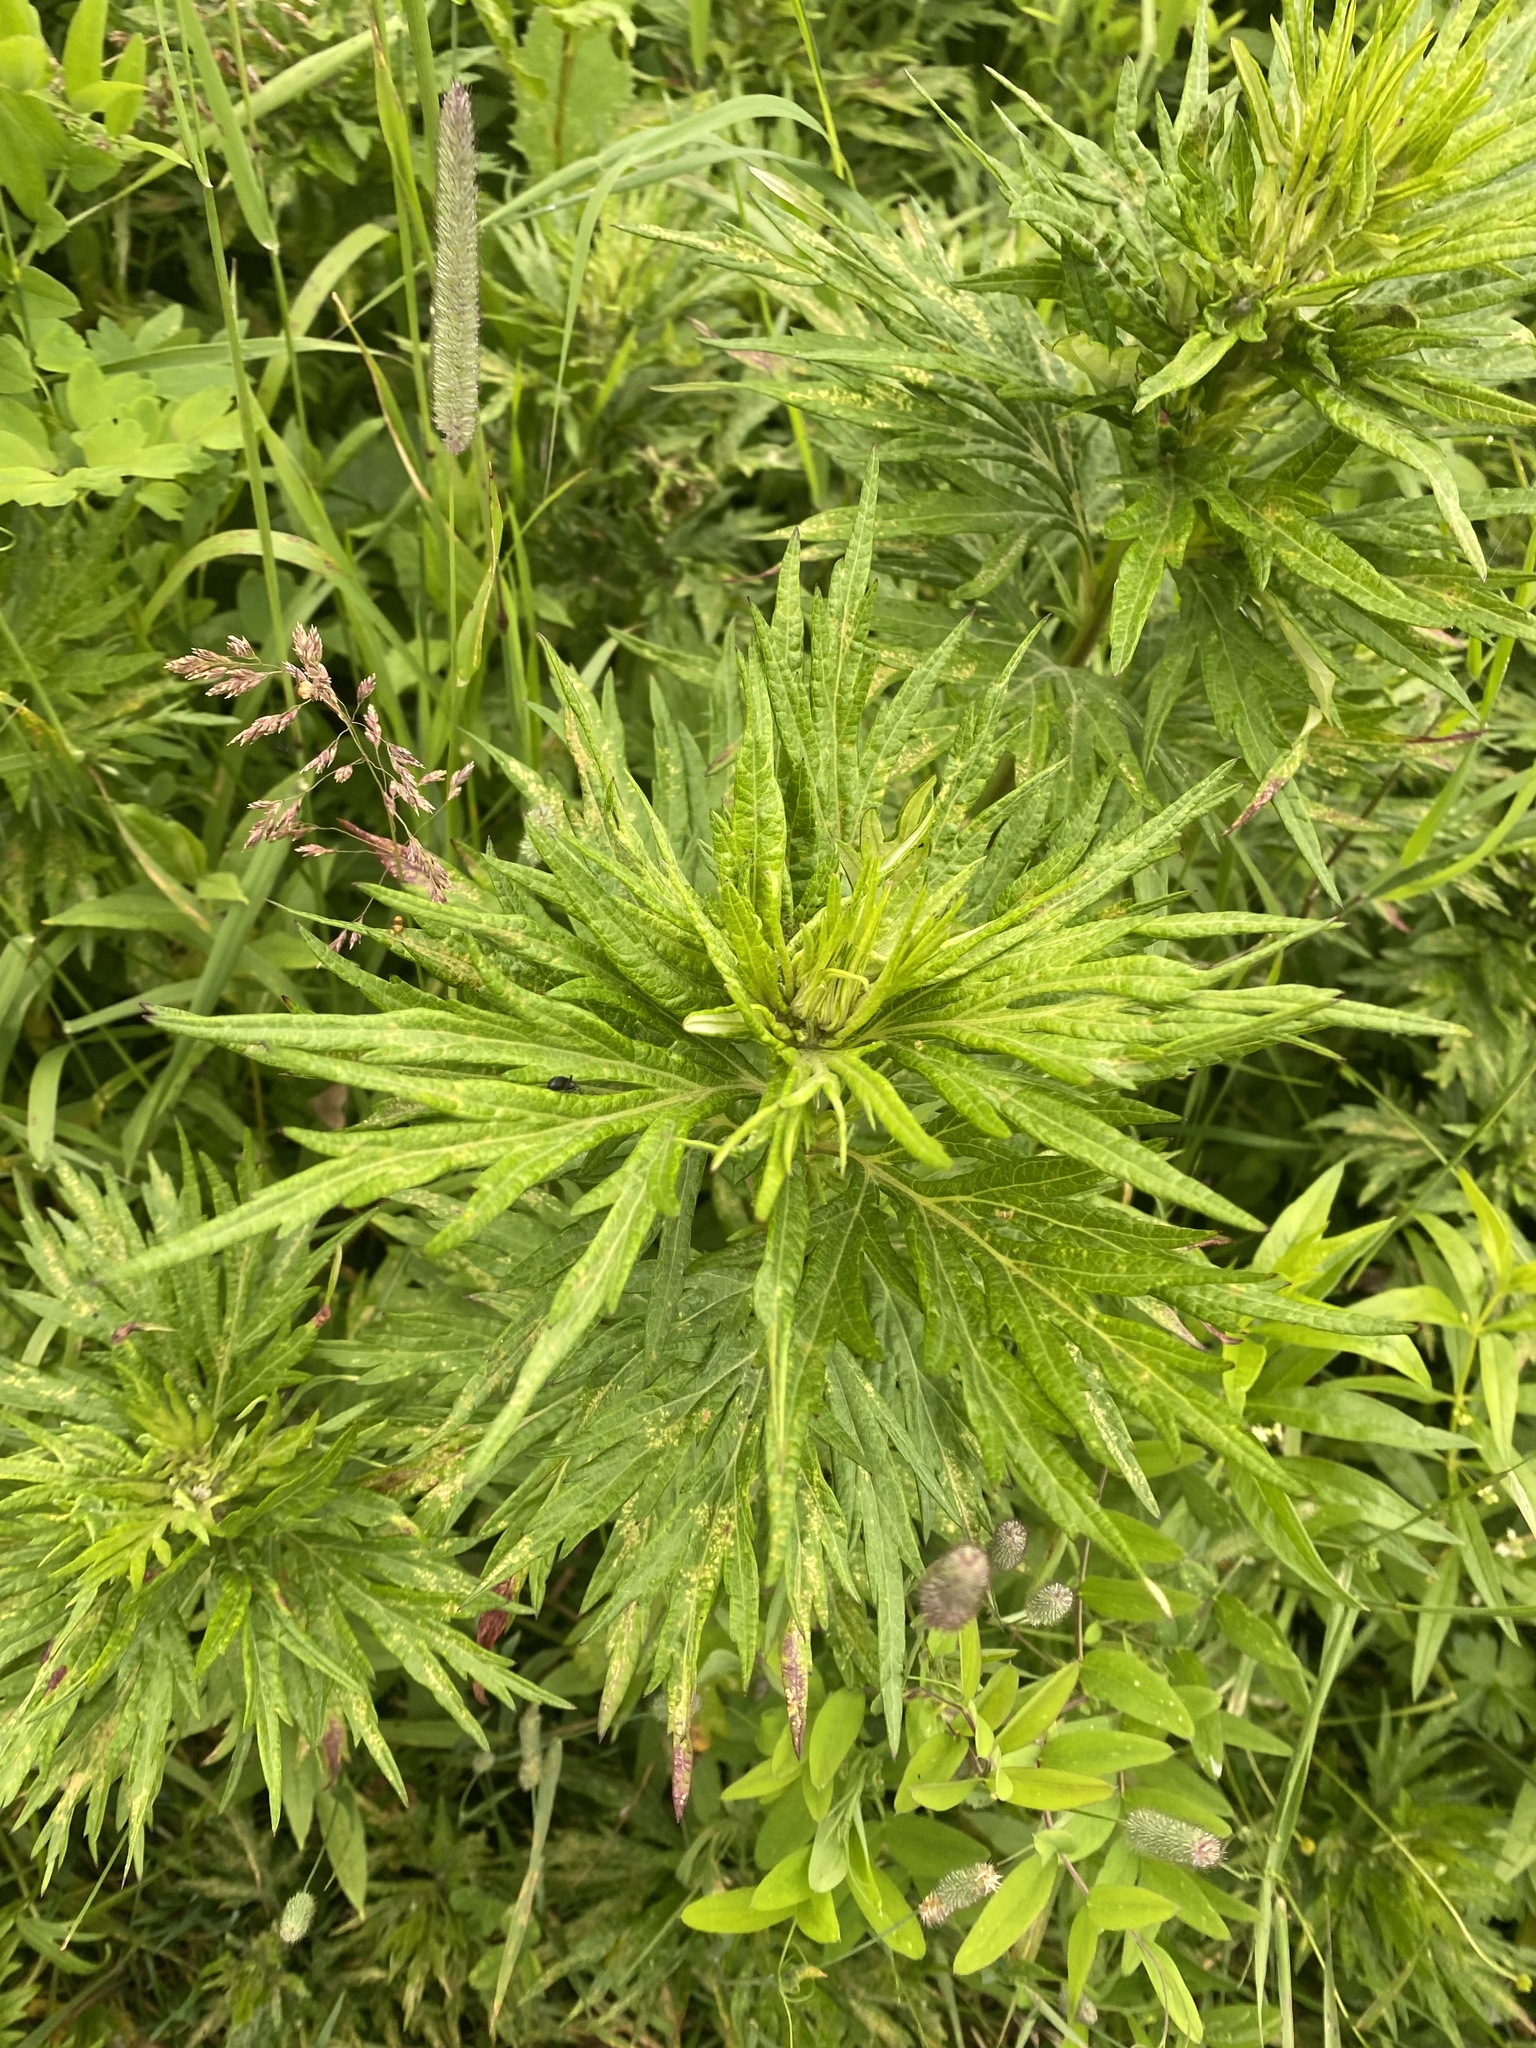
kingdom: Plantae
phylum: Tracheophyta
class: Magnoliopsida
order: Asterales
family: Asteraceae
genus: Jacobaea
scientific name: Jacobaea cannabifolia
